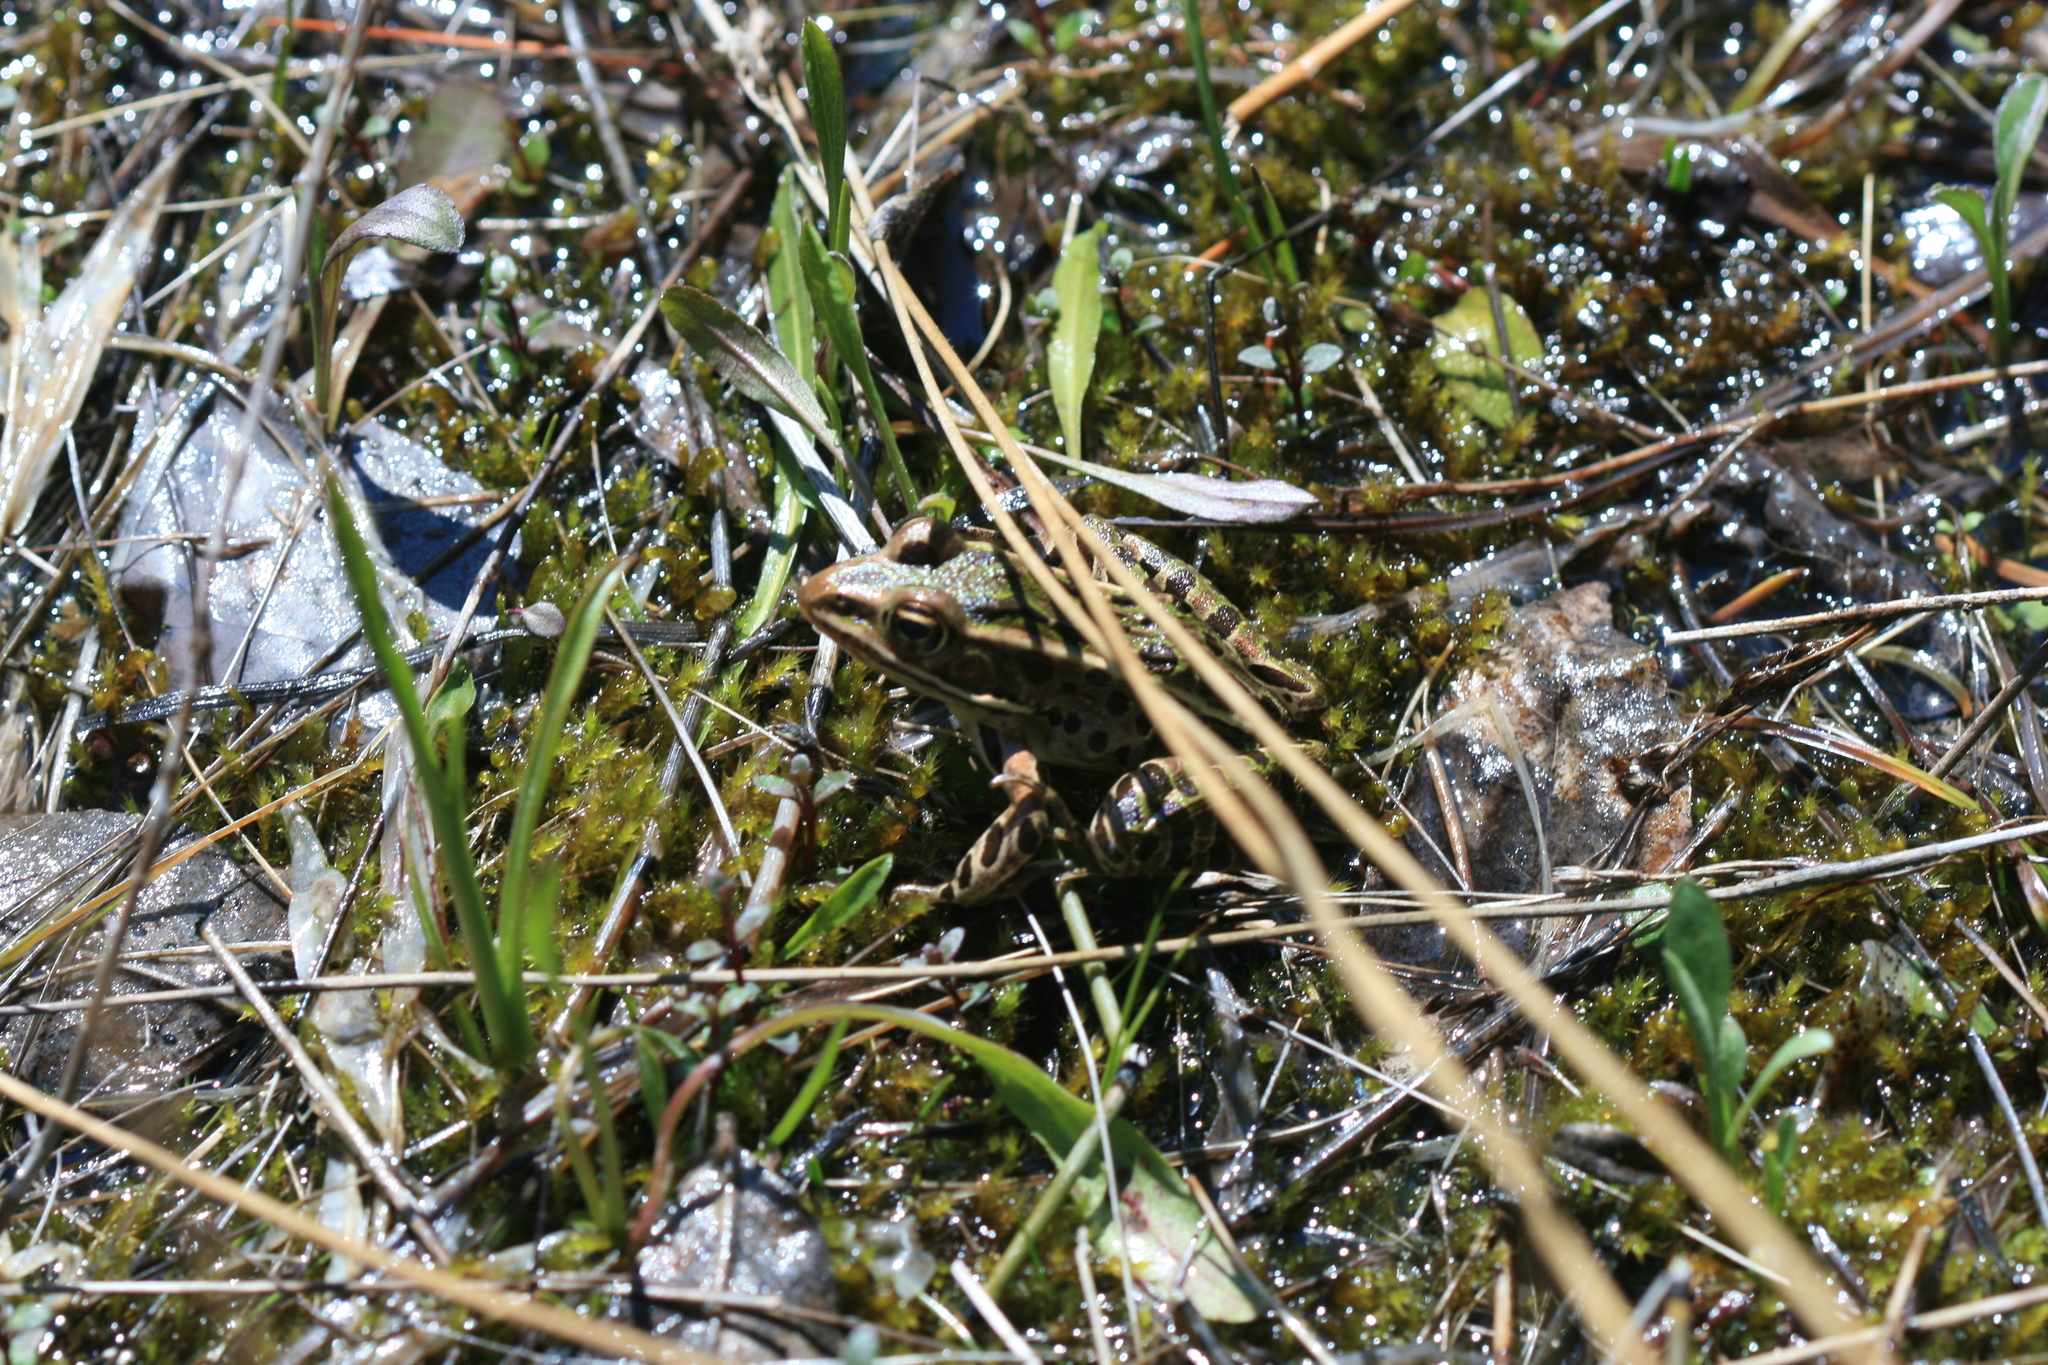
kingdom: Animalia
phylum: Chordata
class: Amphibia
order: Anura
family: Ranidae
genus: Lithobates
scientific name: Lithobates pipiens
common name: Northern leopard frog
